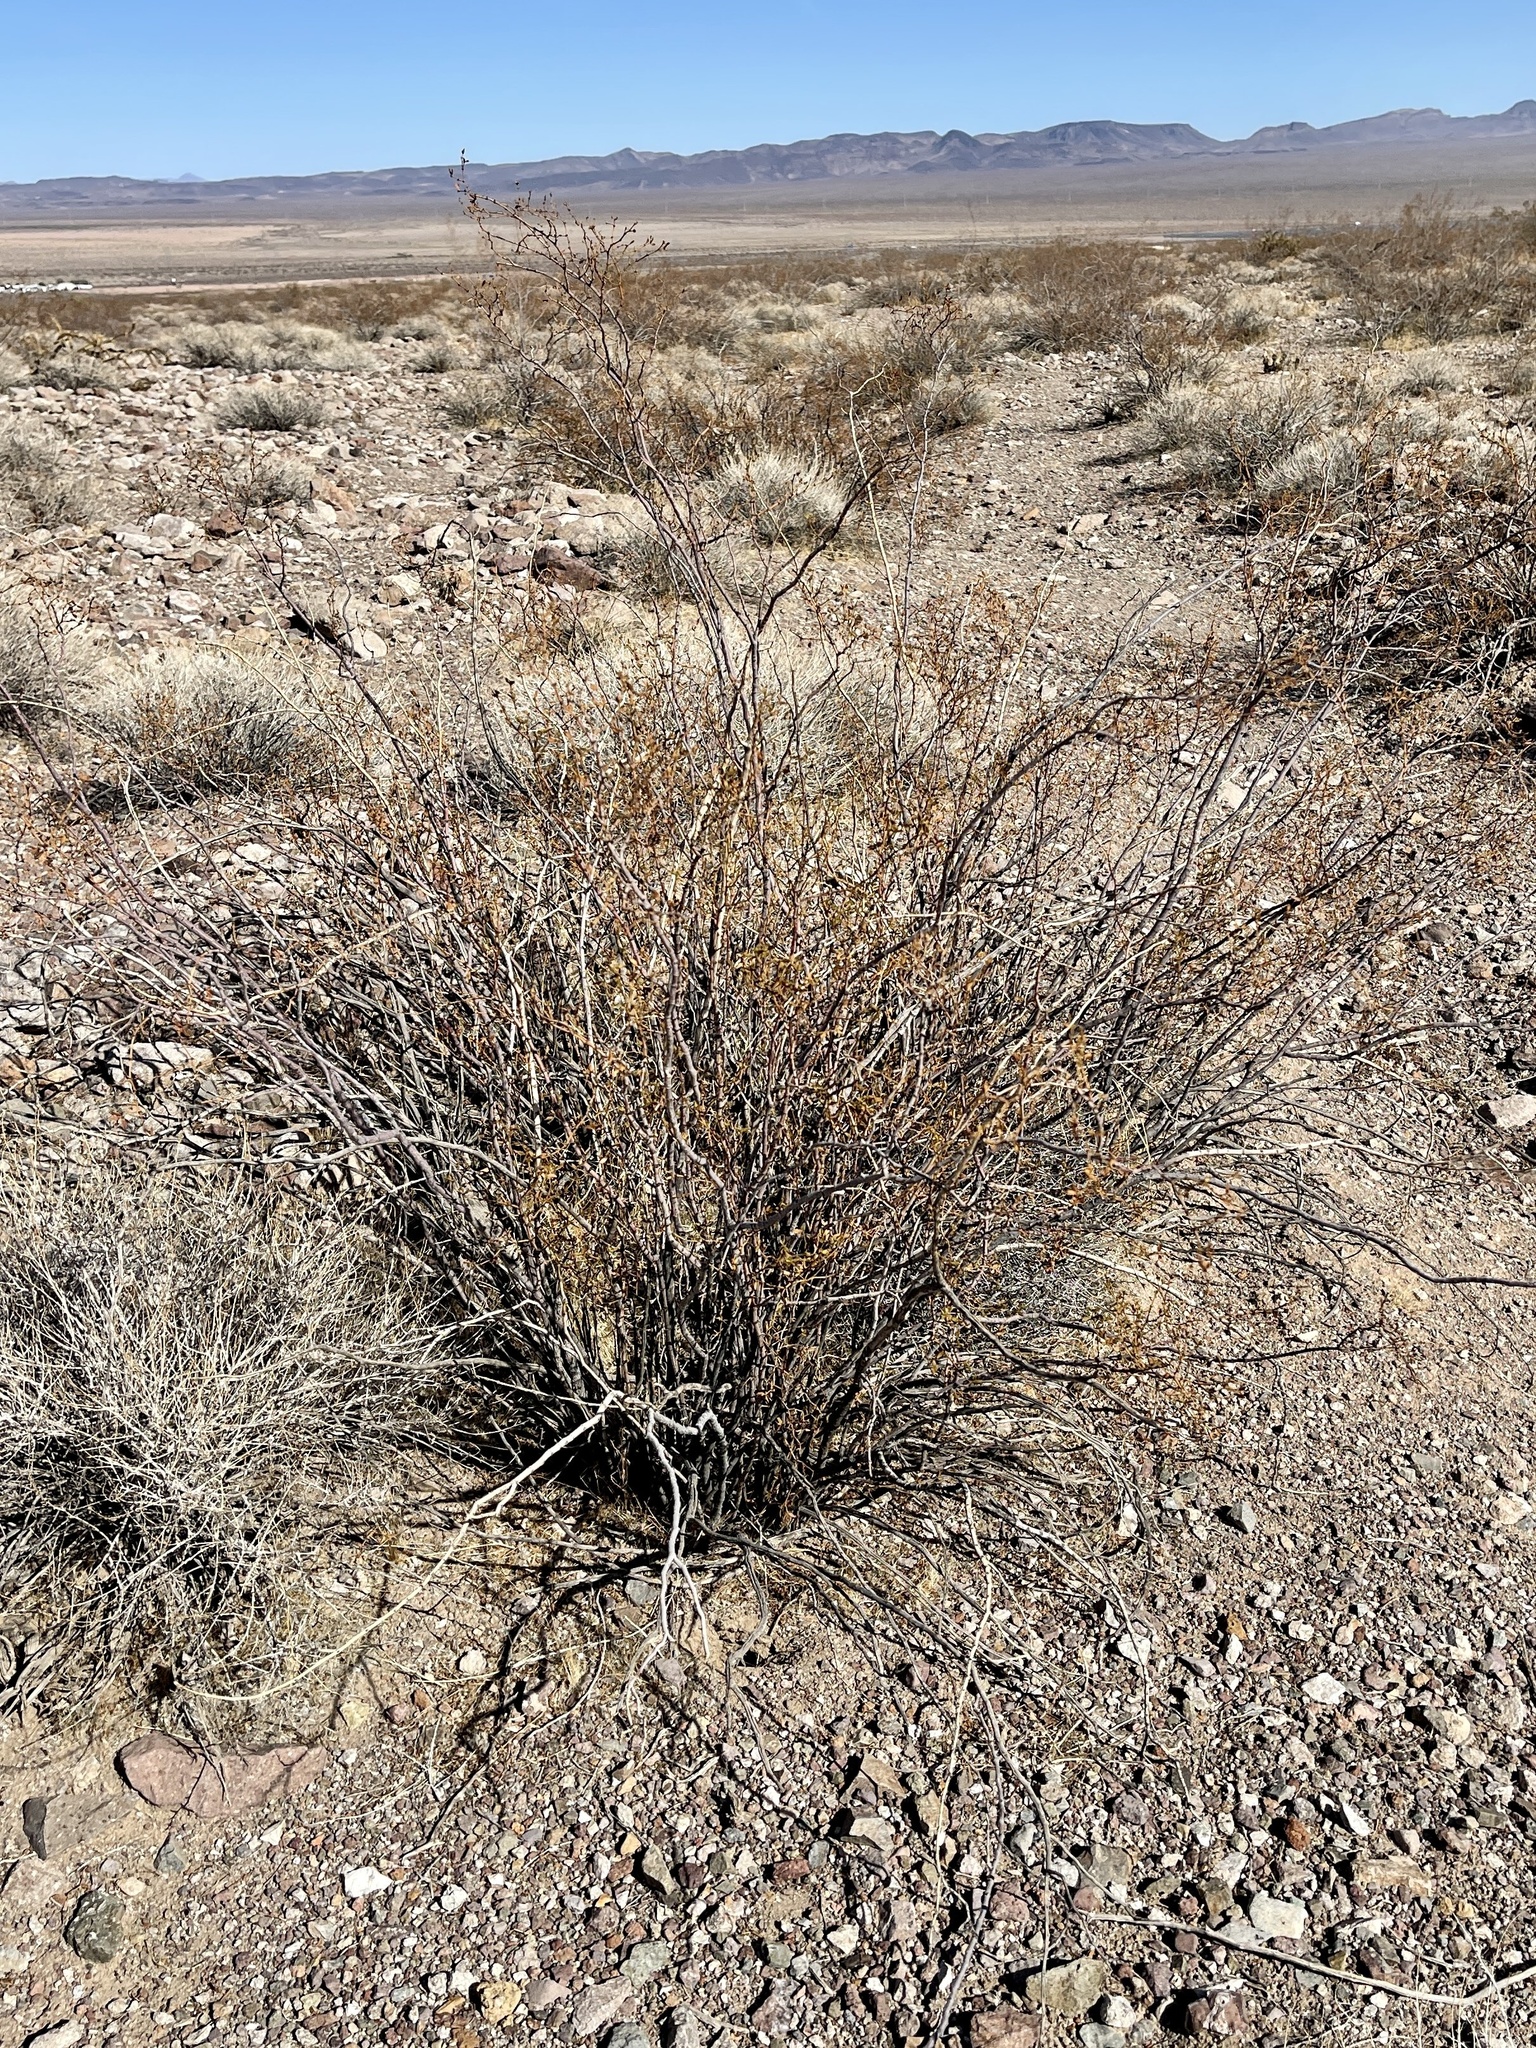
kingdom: Plantae
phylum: Tracheophyta
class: Magnoliopsida
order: Zygophyllales
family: Zygophyllaceae
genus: Larrea
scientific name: Larrea tridentata
